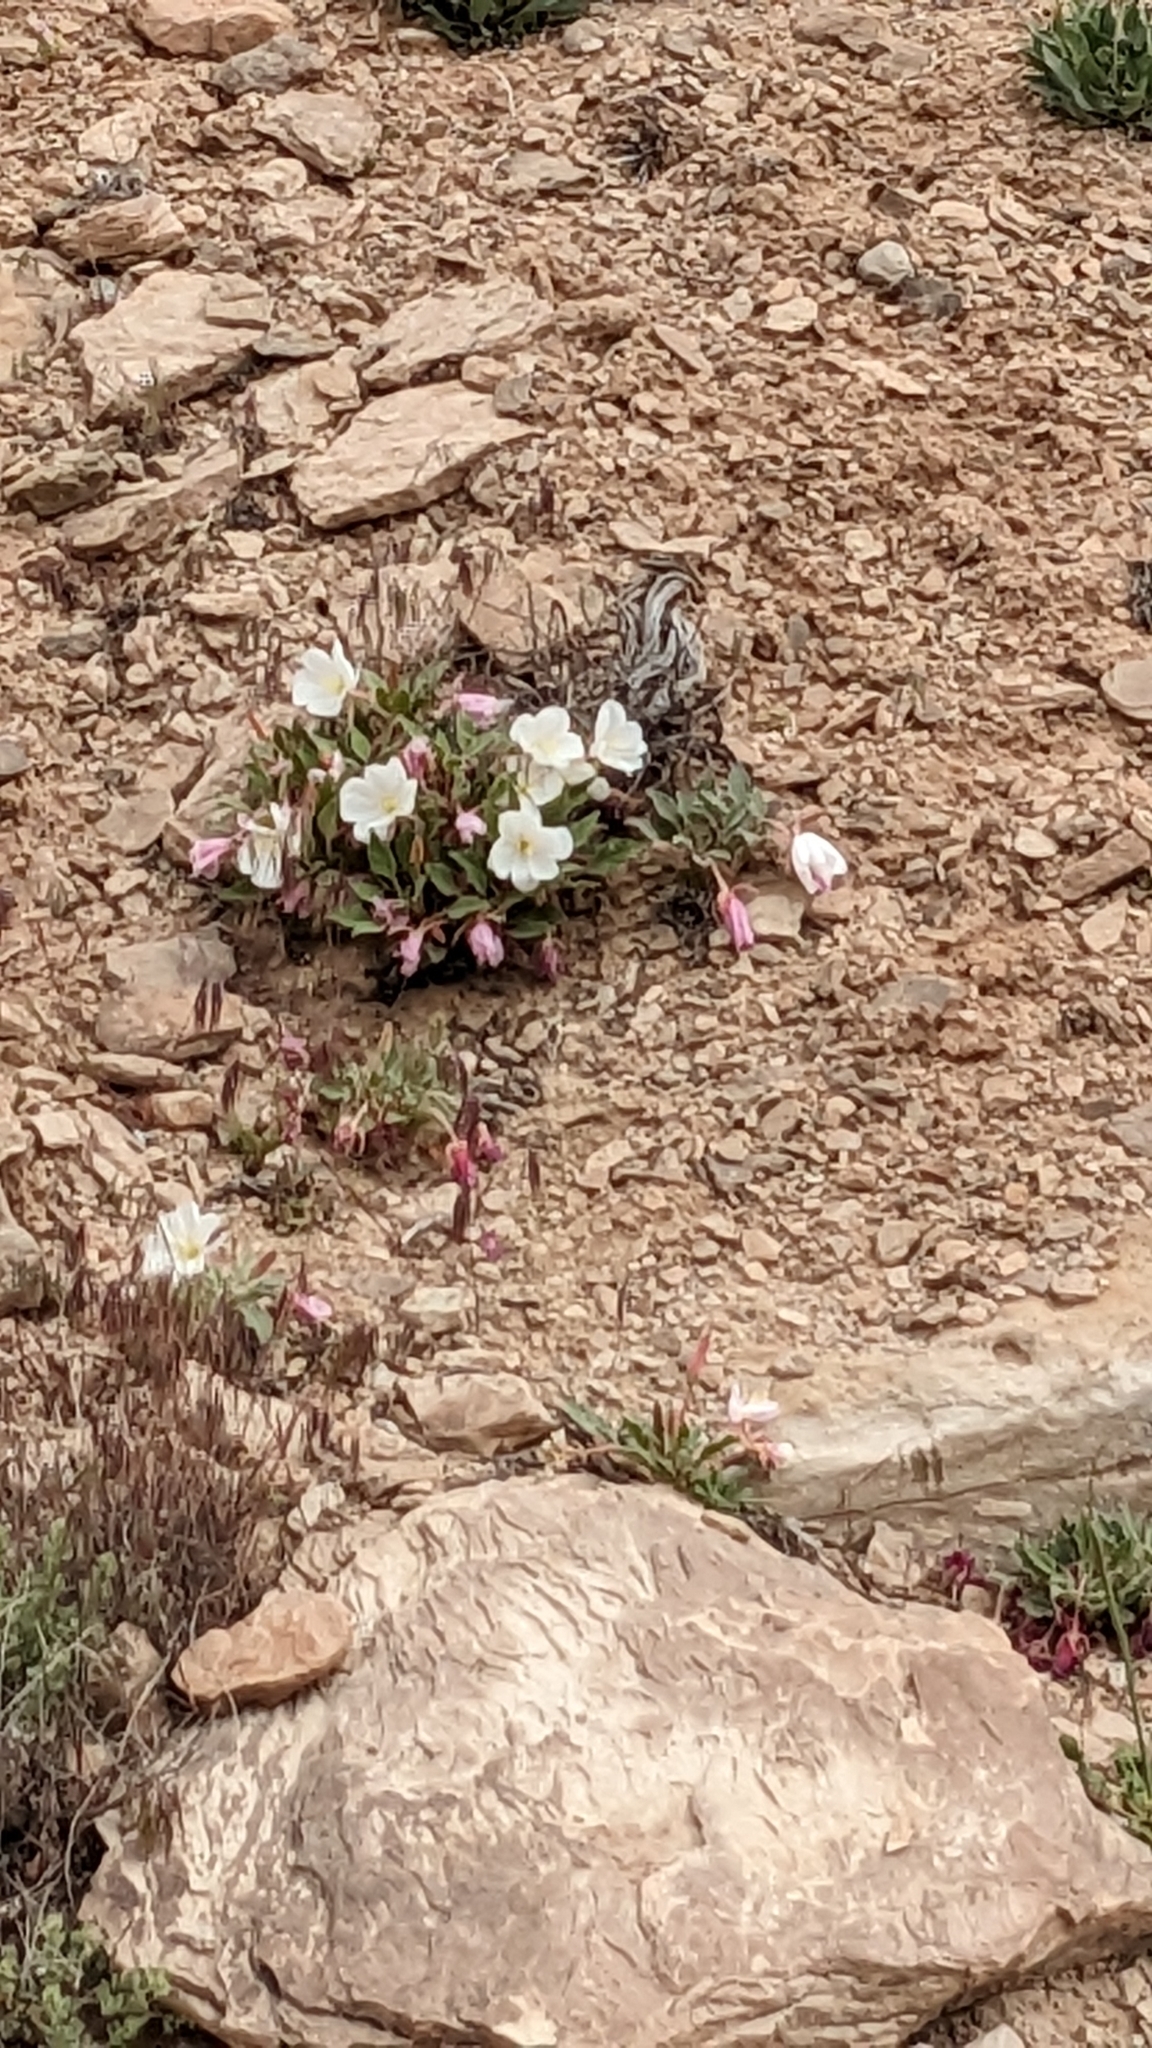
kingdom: Plantae
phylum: Tracheophyta
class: Magnoliopsida
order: Myrtales
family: Onagraceae
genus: Oenothera
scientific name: Oenothera cespitosa
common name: Tufted evening-primrose
